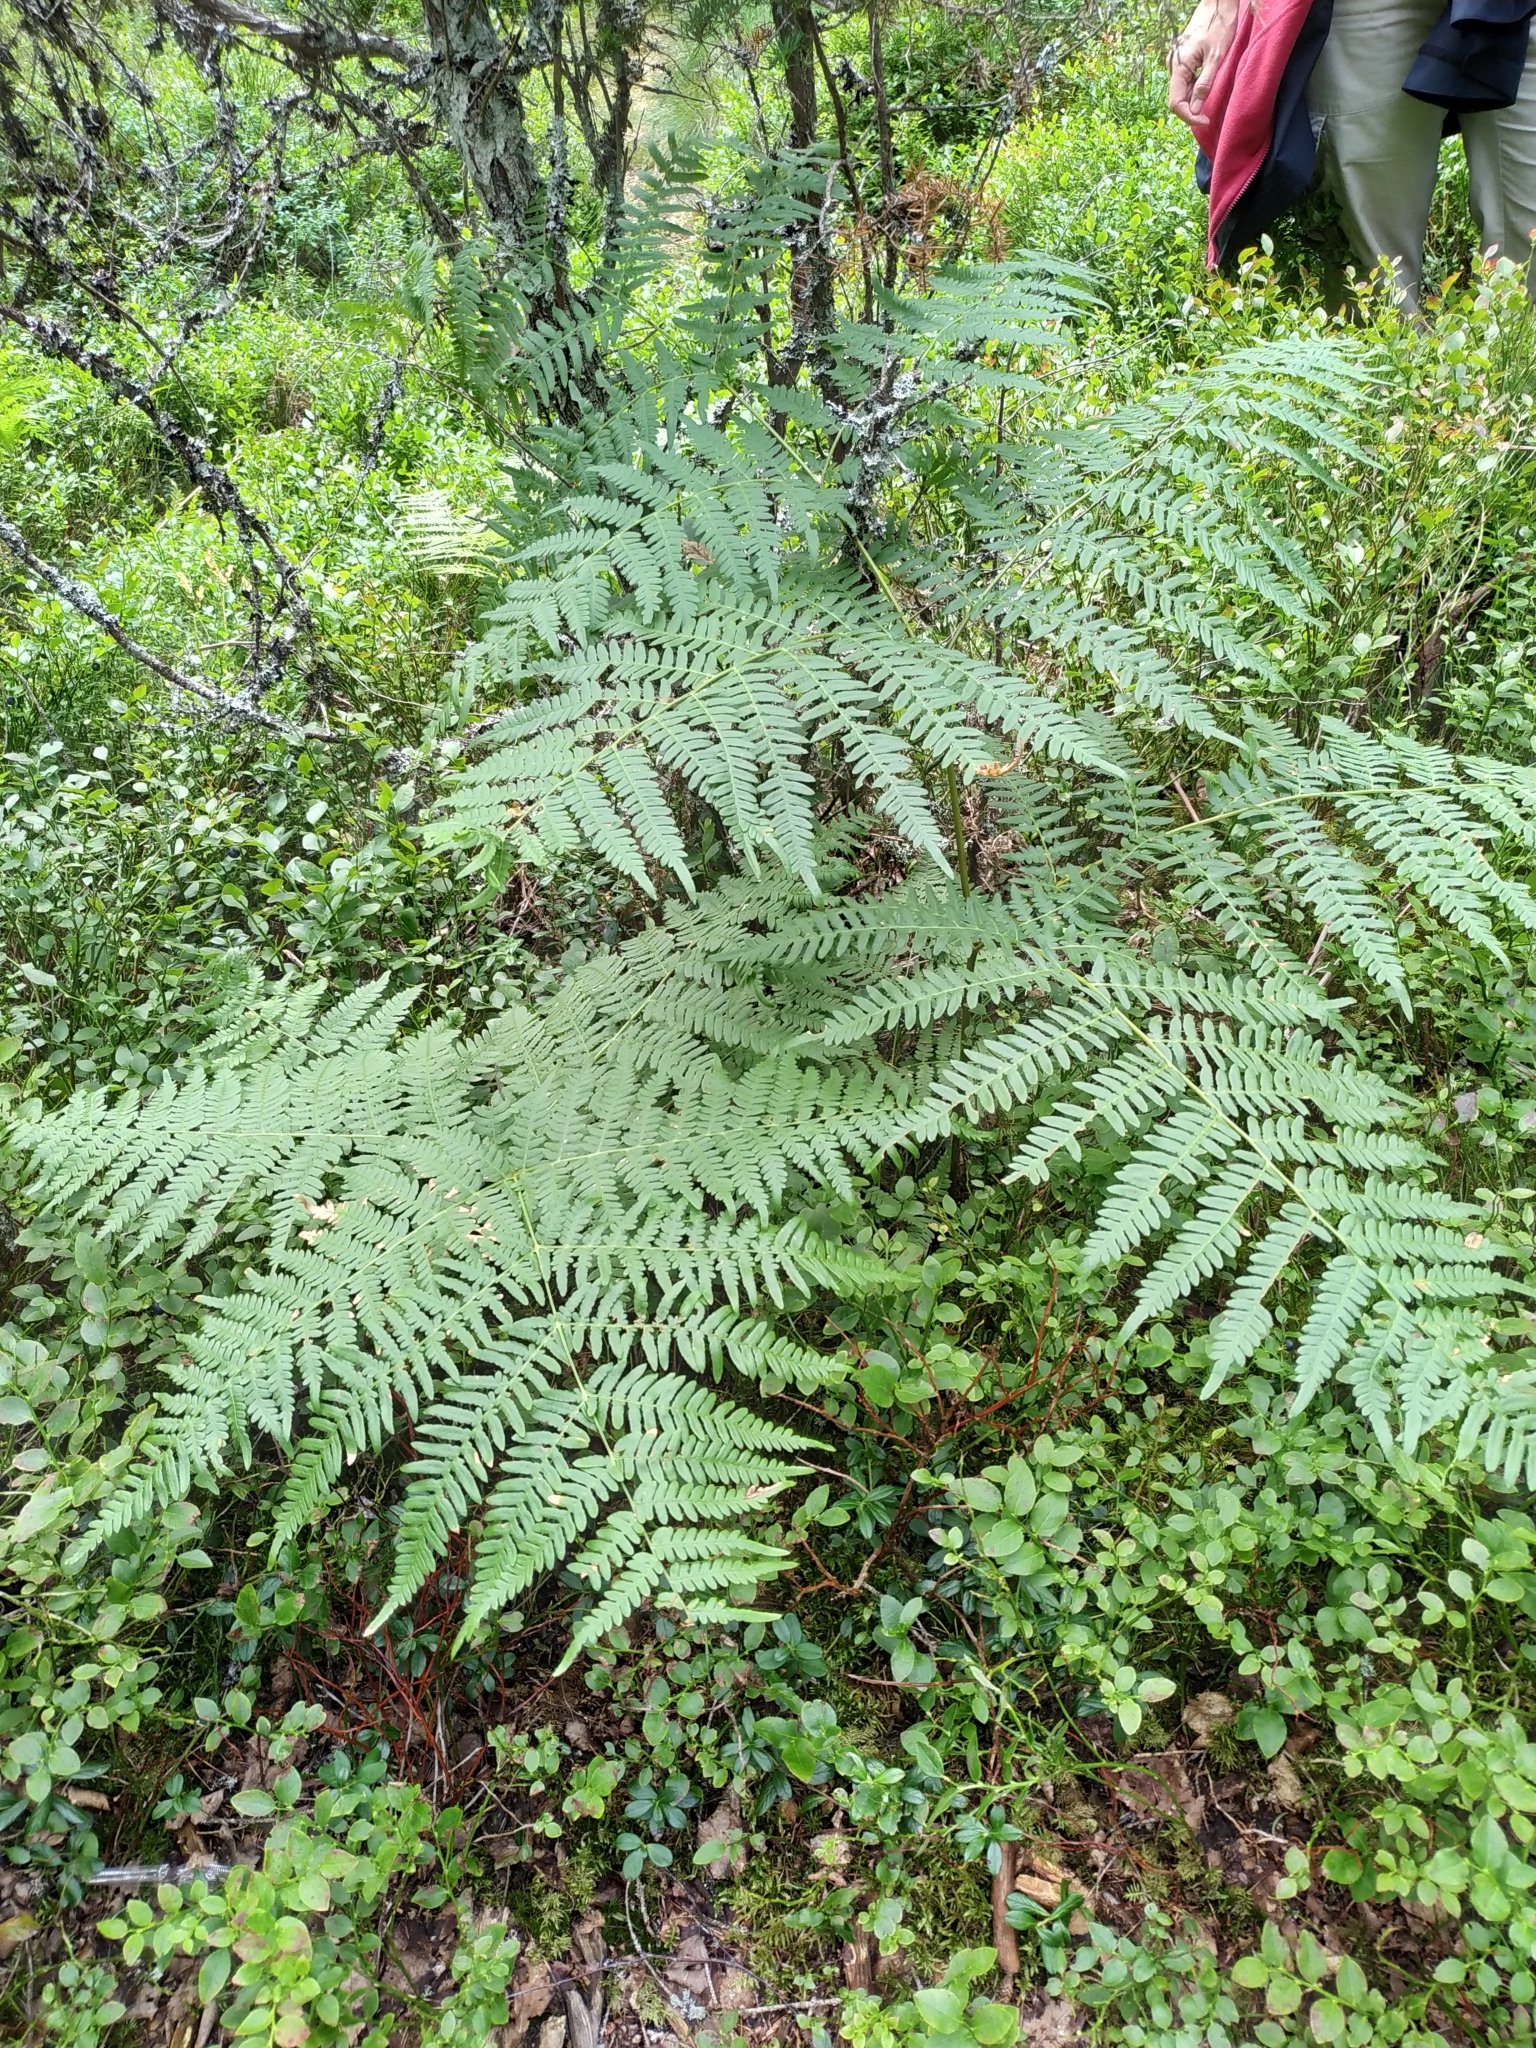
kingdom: Plantae
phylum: Tracheophyta
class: Polypodiopsida
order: Polypodiales
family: Dennstaedtiaceae
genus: Pteridium
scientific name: Pteridium aquilinum
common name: Bracken
